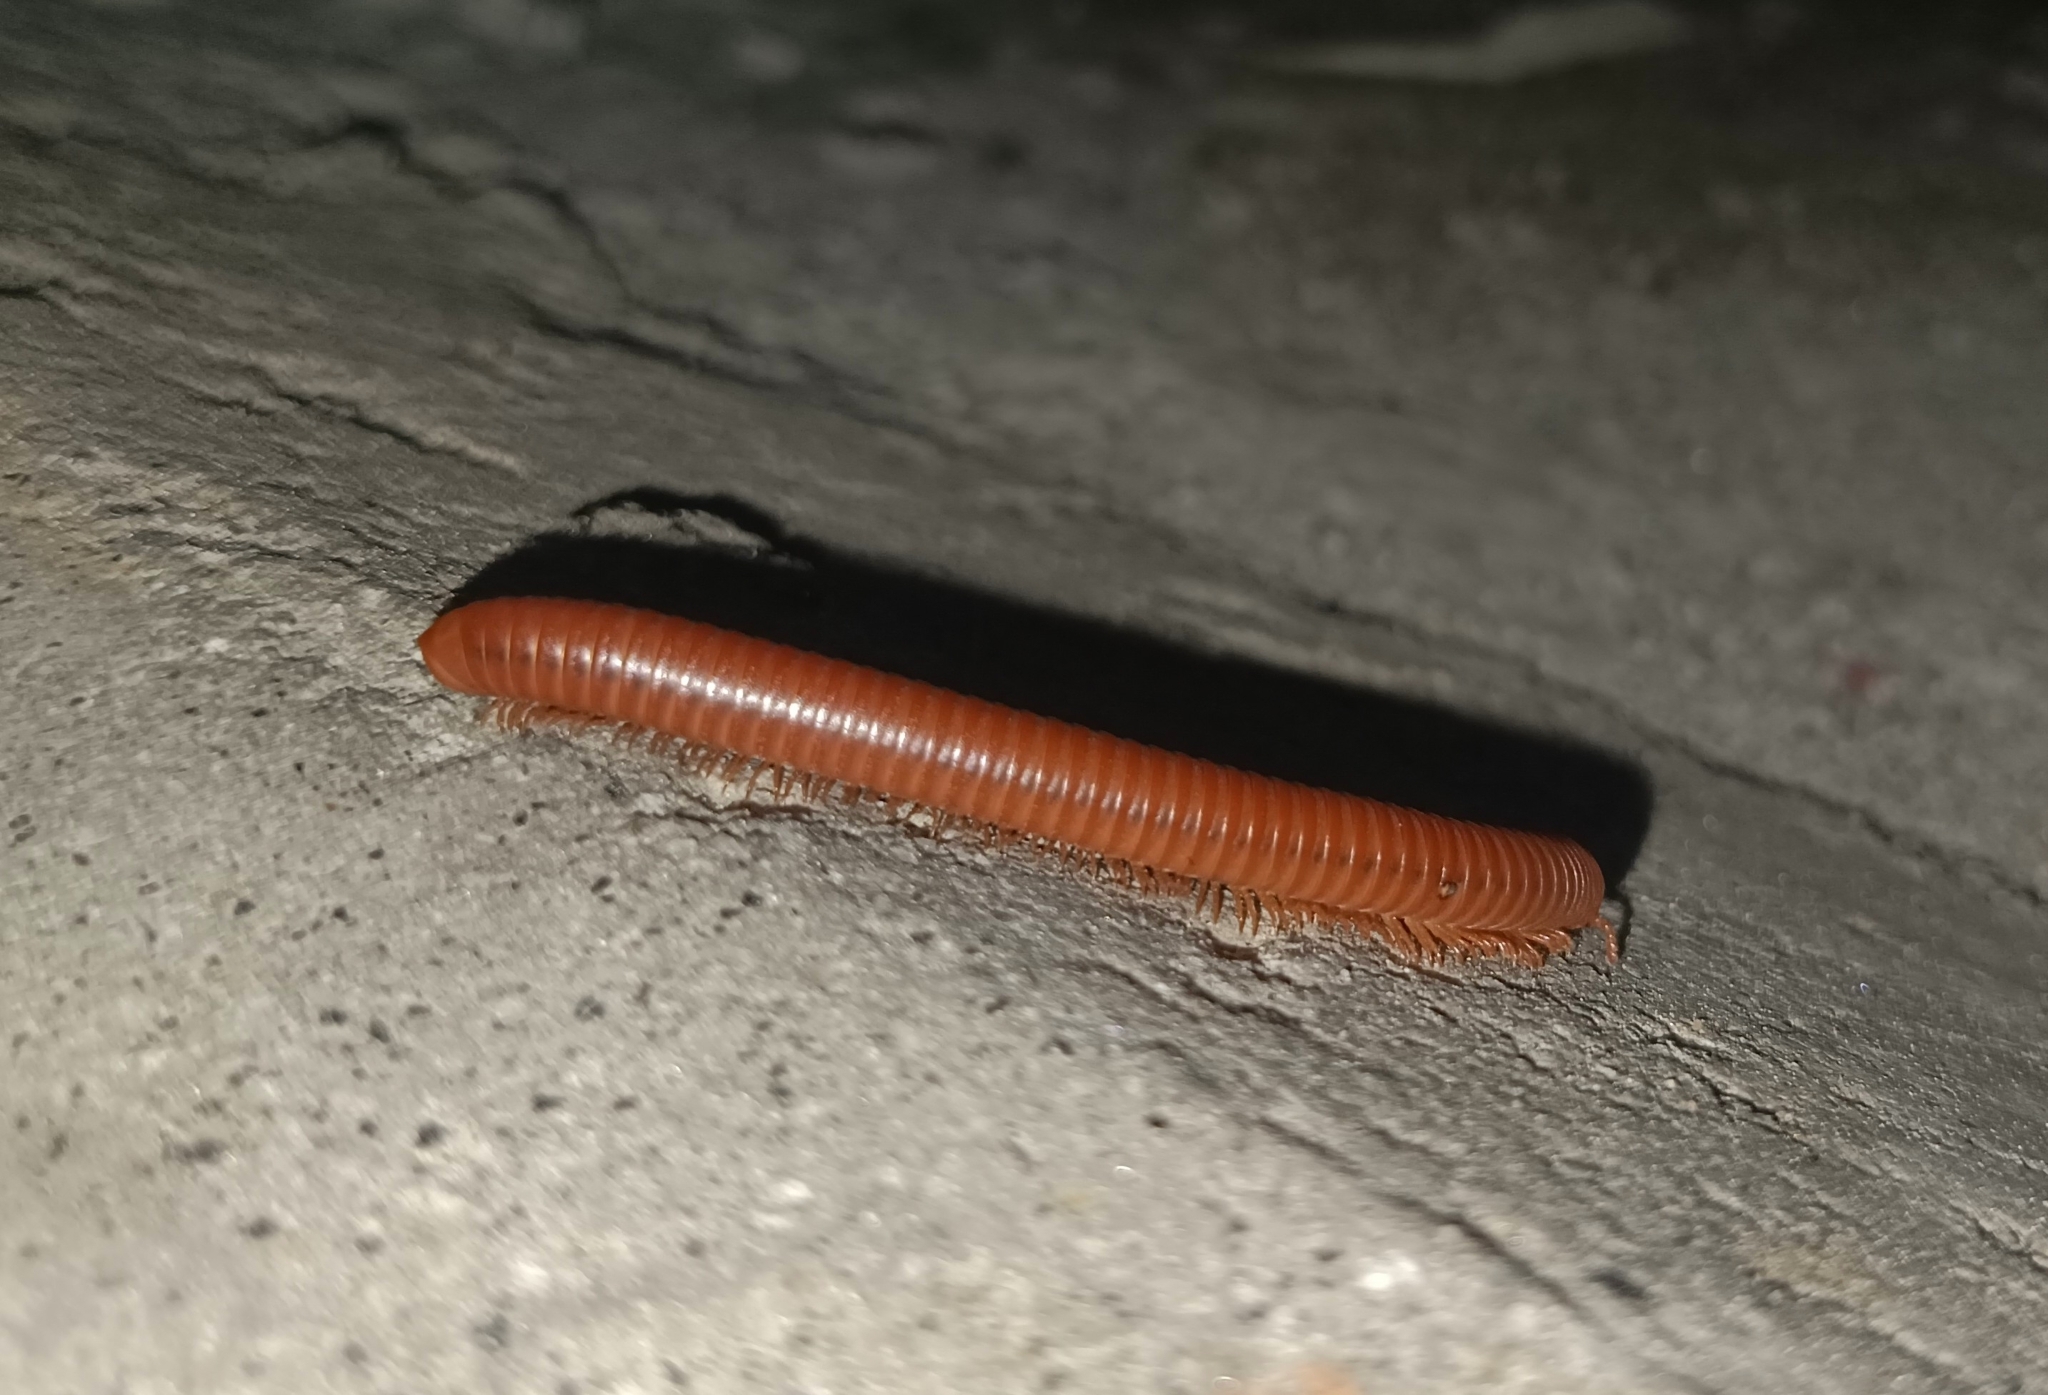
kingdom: Animalia
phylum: Arthropoda
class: Diplopoda
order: Spirobolida
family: Pachybolidae
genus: Trigoniulus
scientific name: Trigoniulus corallinus
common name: Millipede
